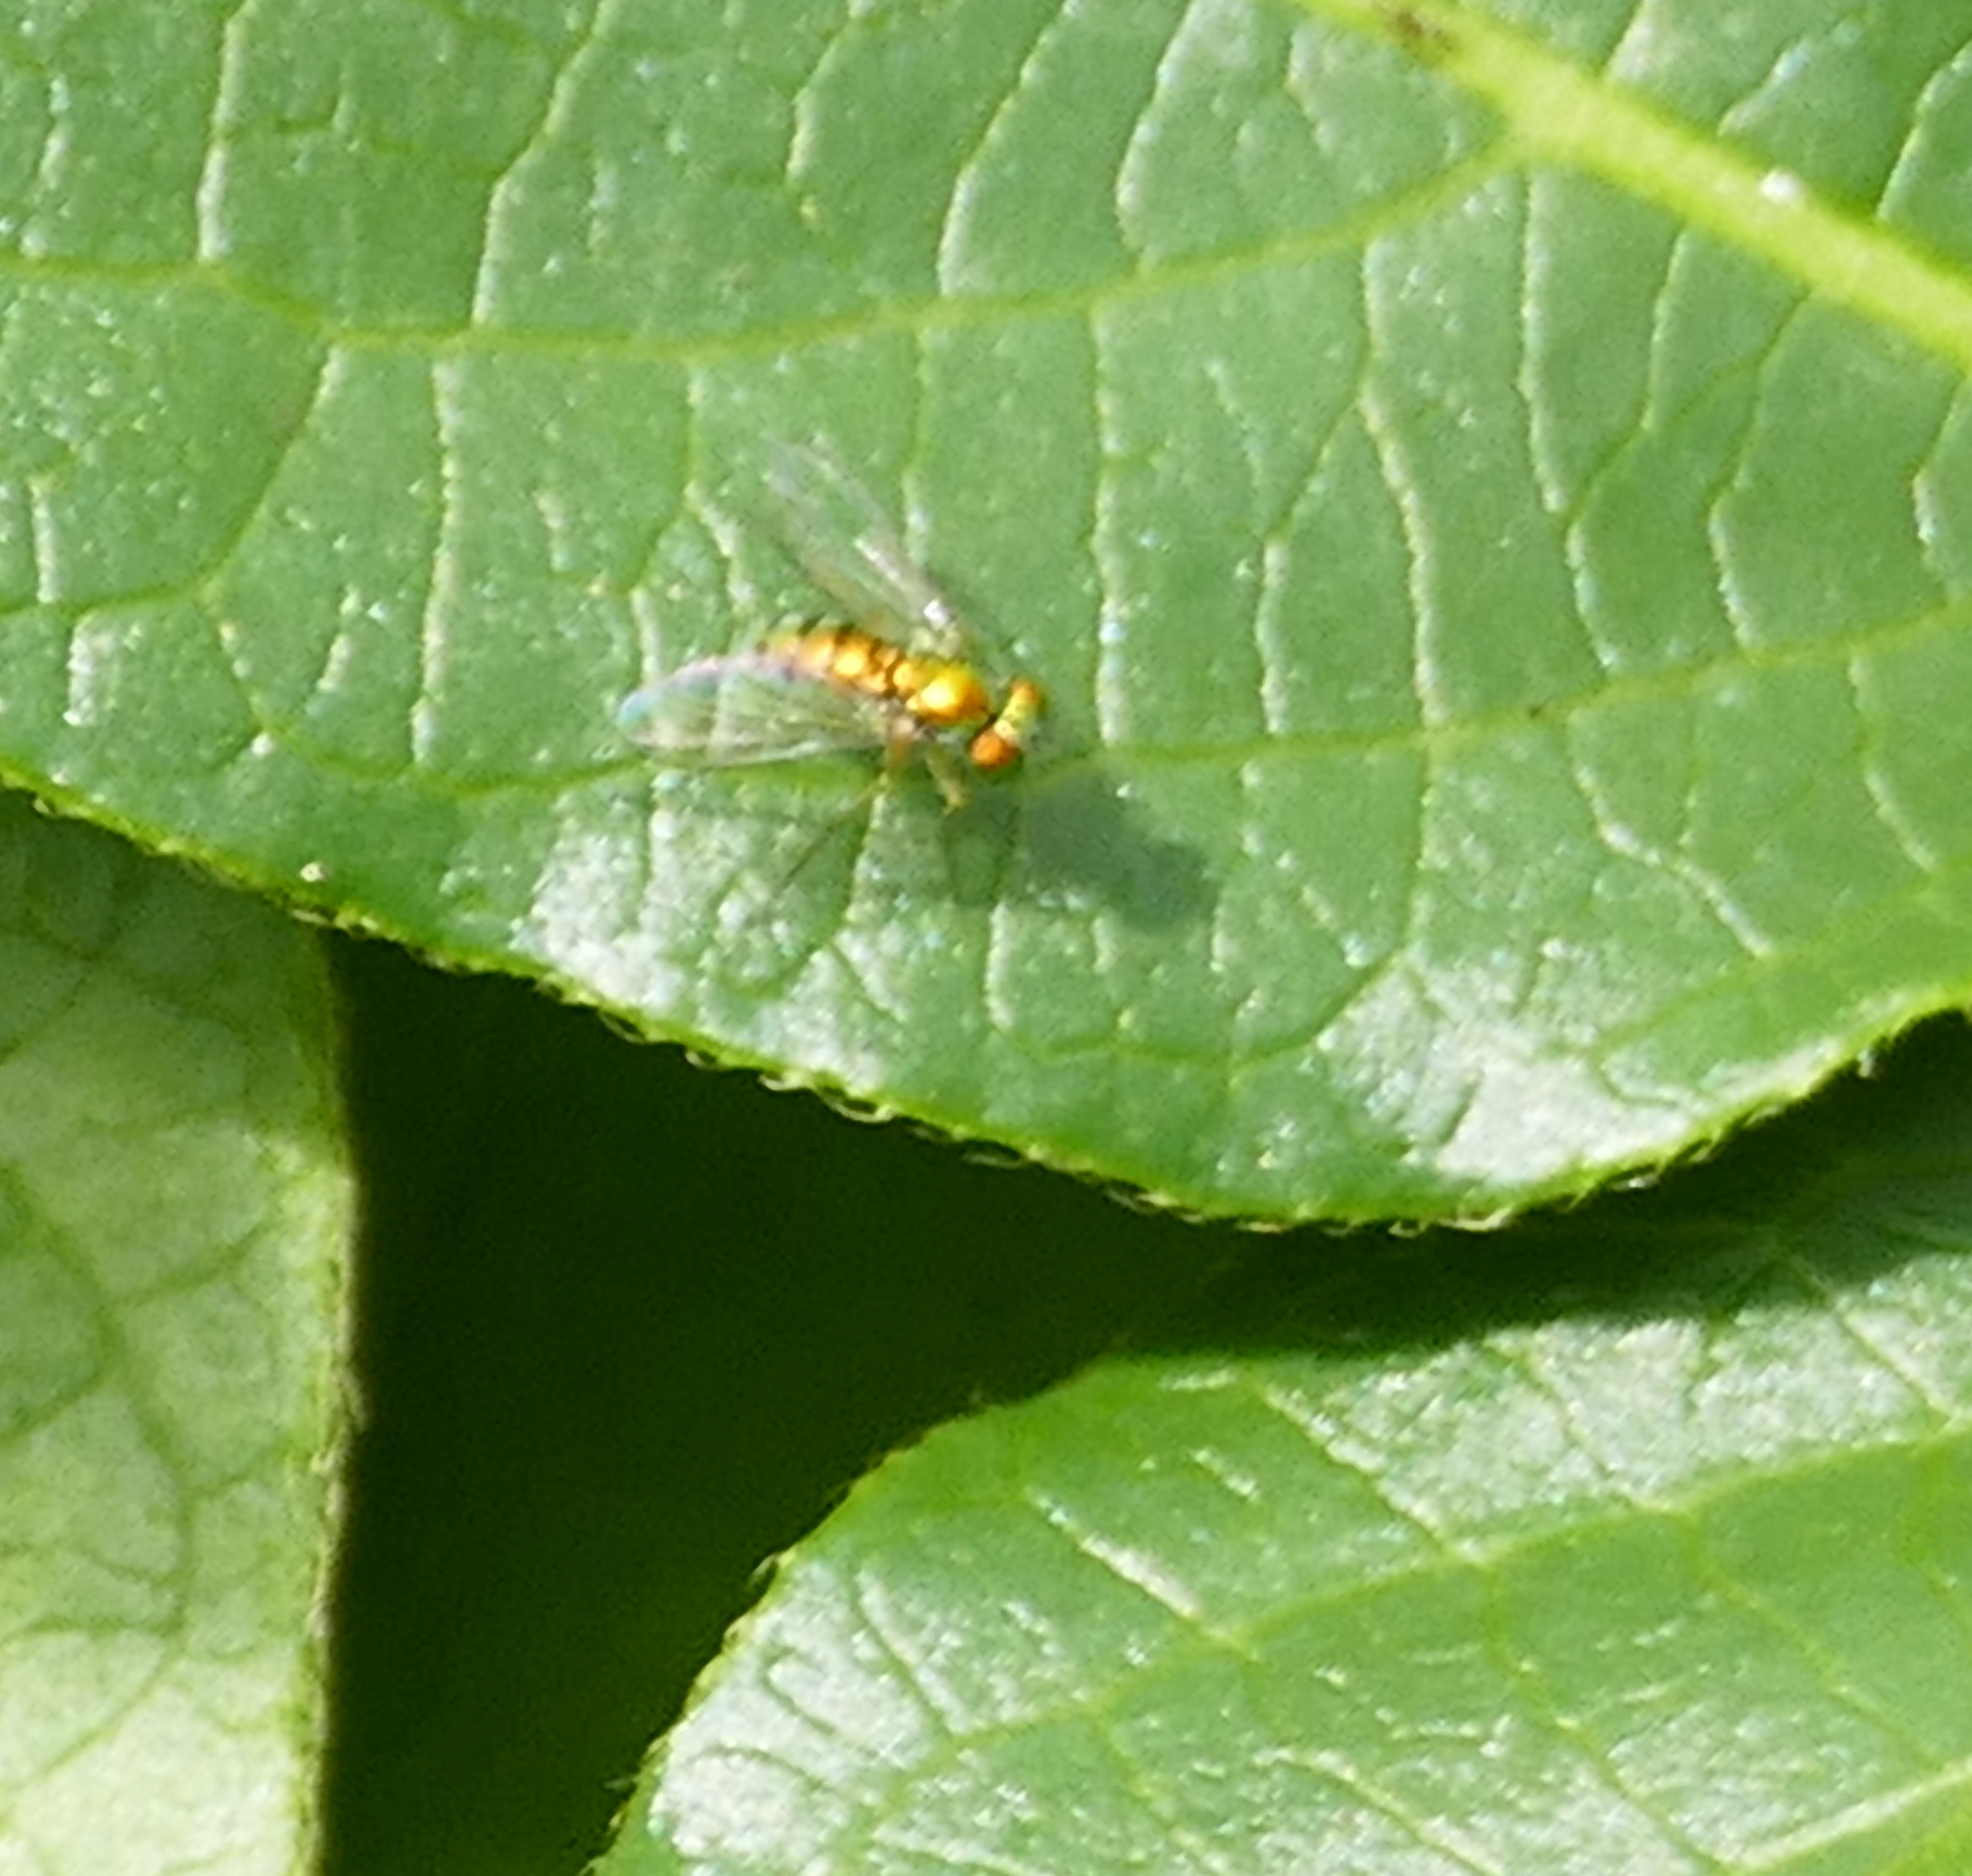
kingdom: Animalia
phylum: Arthropoda
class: Insecta
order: Diptera
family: Dolichopodidae
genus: Condylostylus
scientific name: Condylostylus
